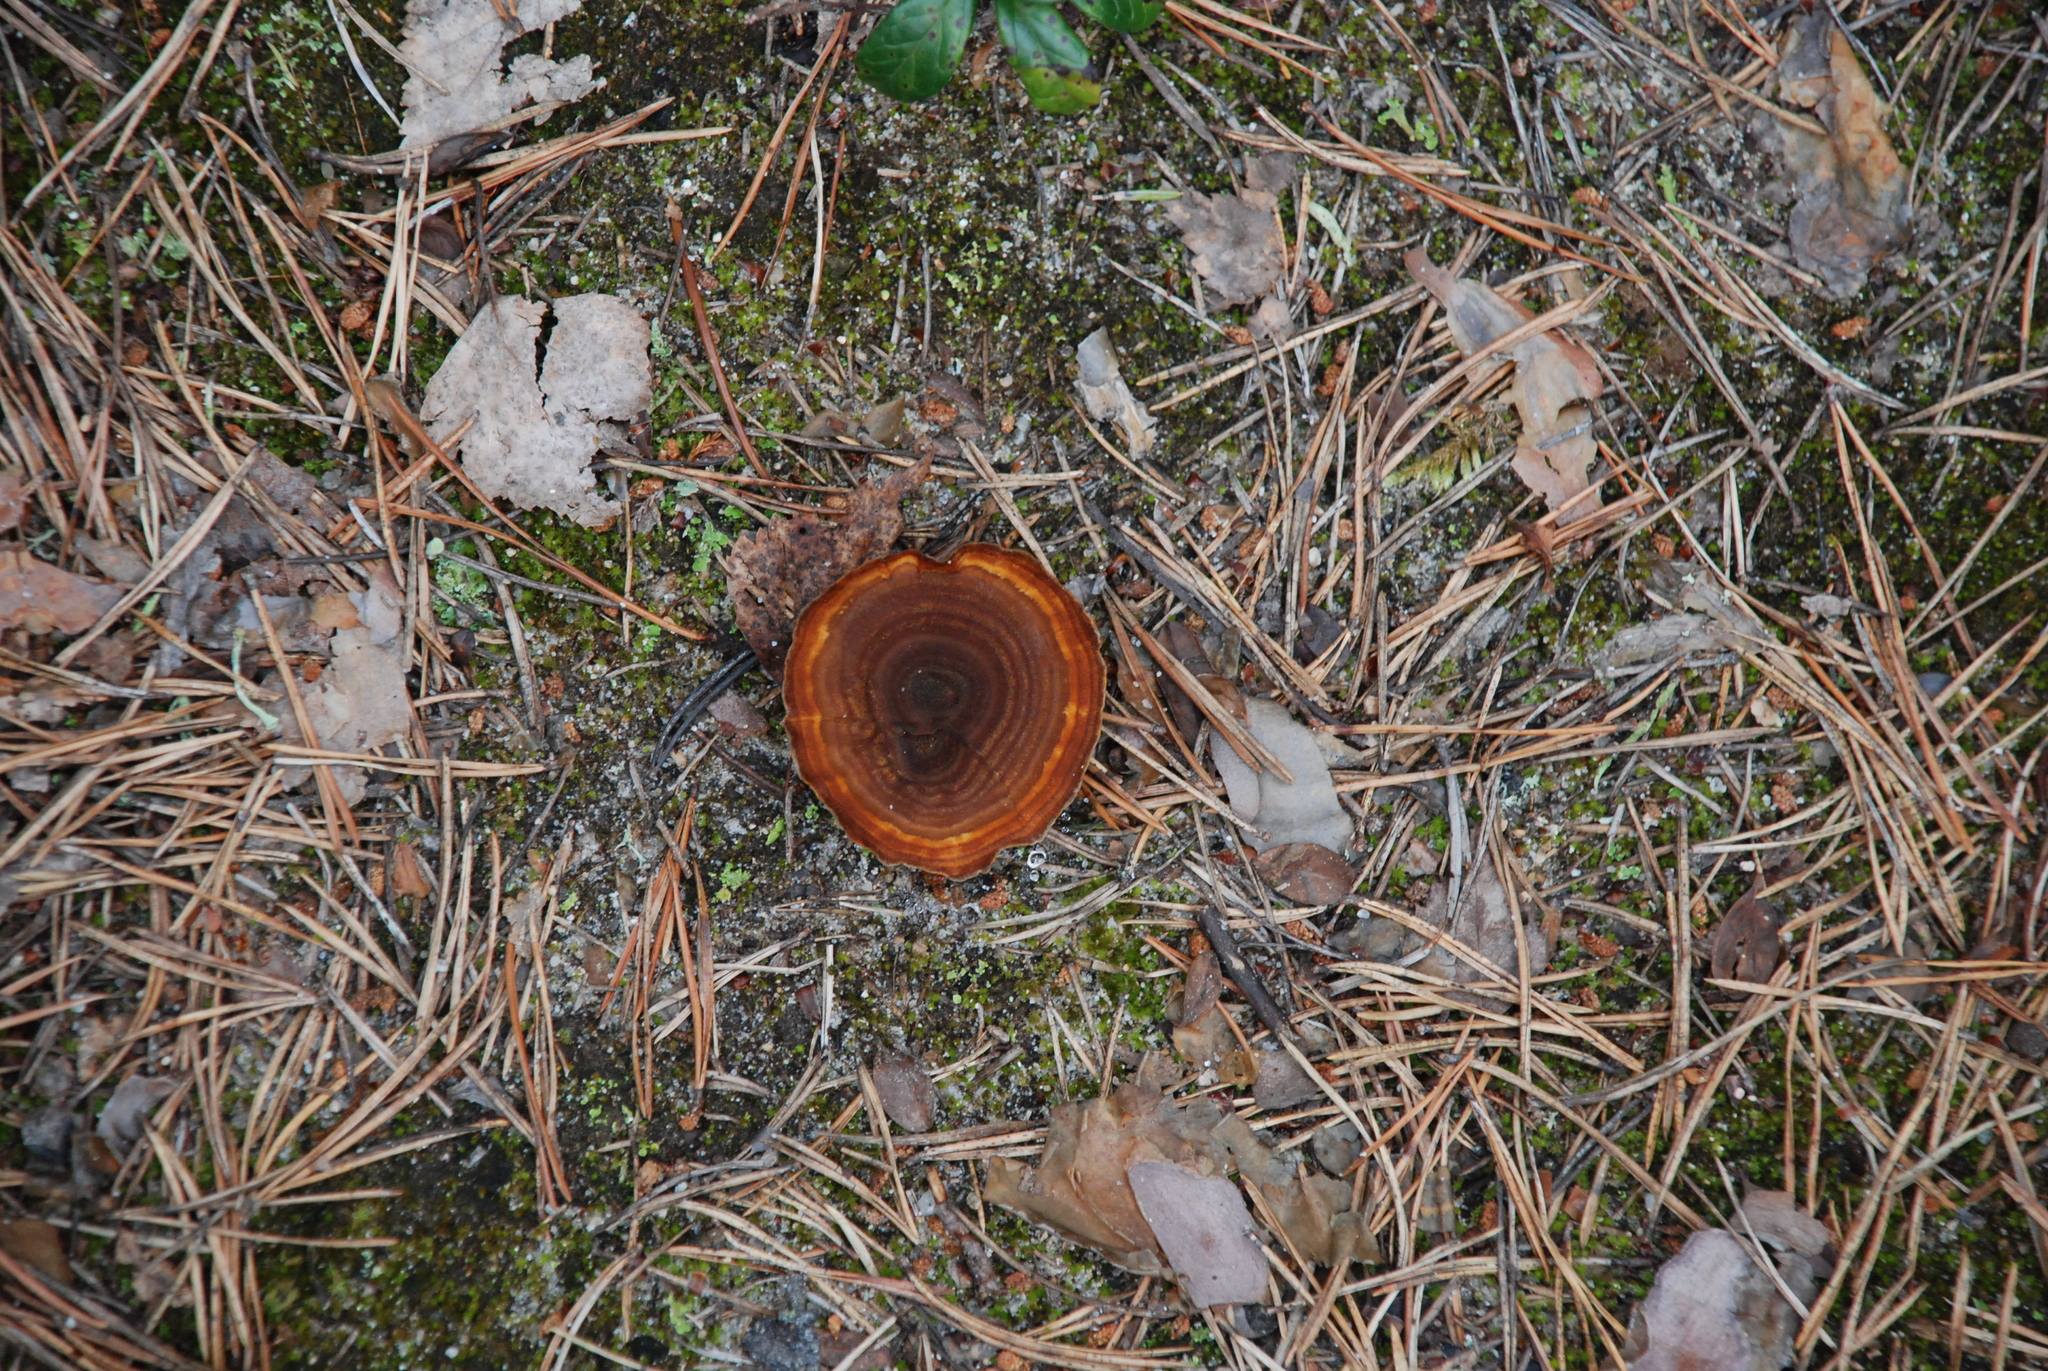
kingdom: Fungi
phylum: Basidiomycota
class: Agaricomycetes
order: Hymenochaetales
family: Hymenochaetaceae
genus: Coltricia
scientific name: Coltricia perennis
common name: Tiger's eye
